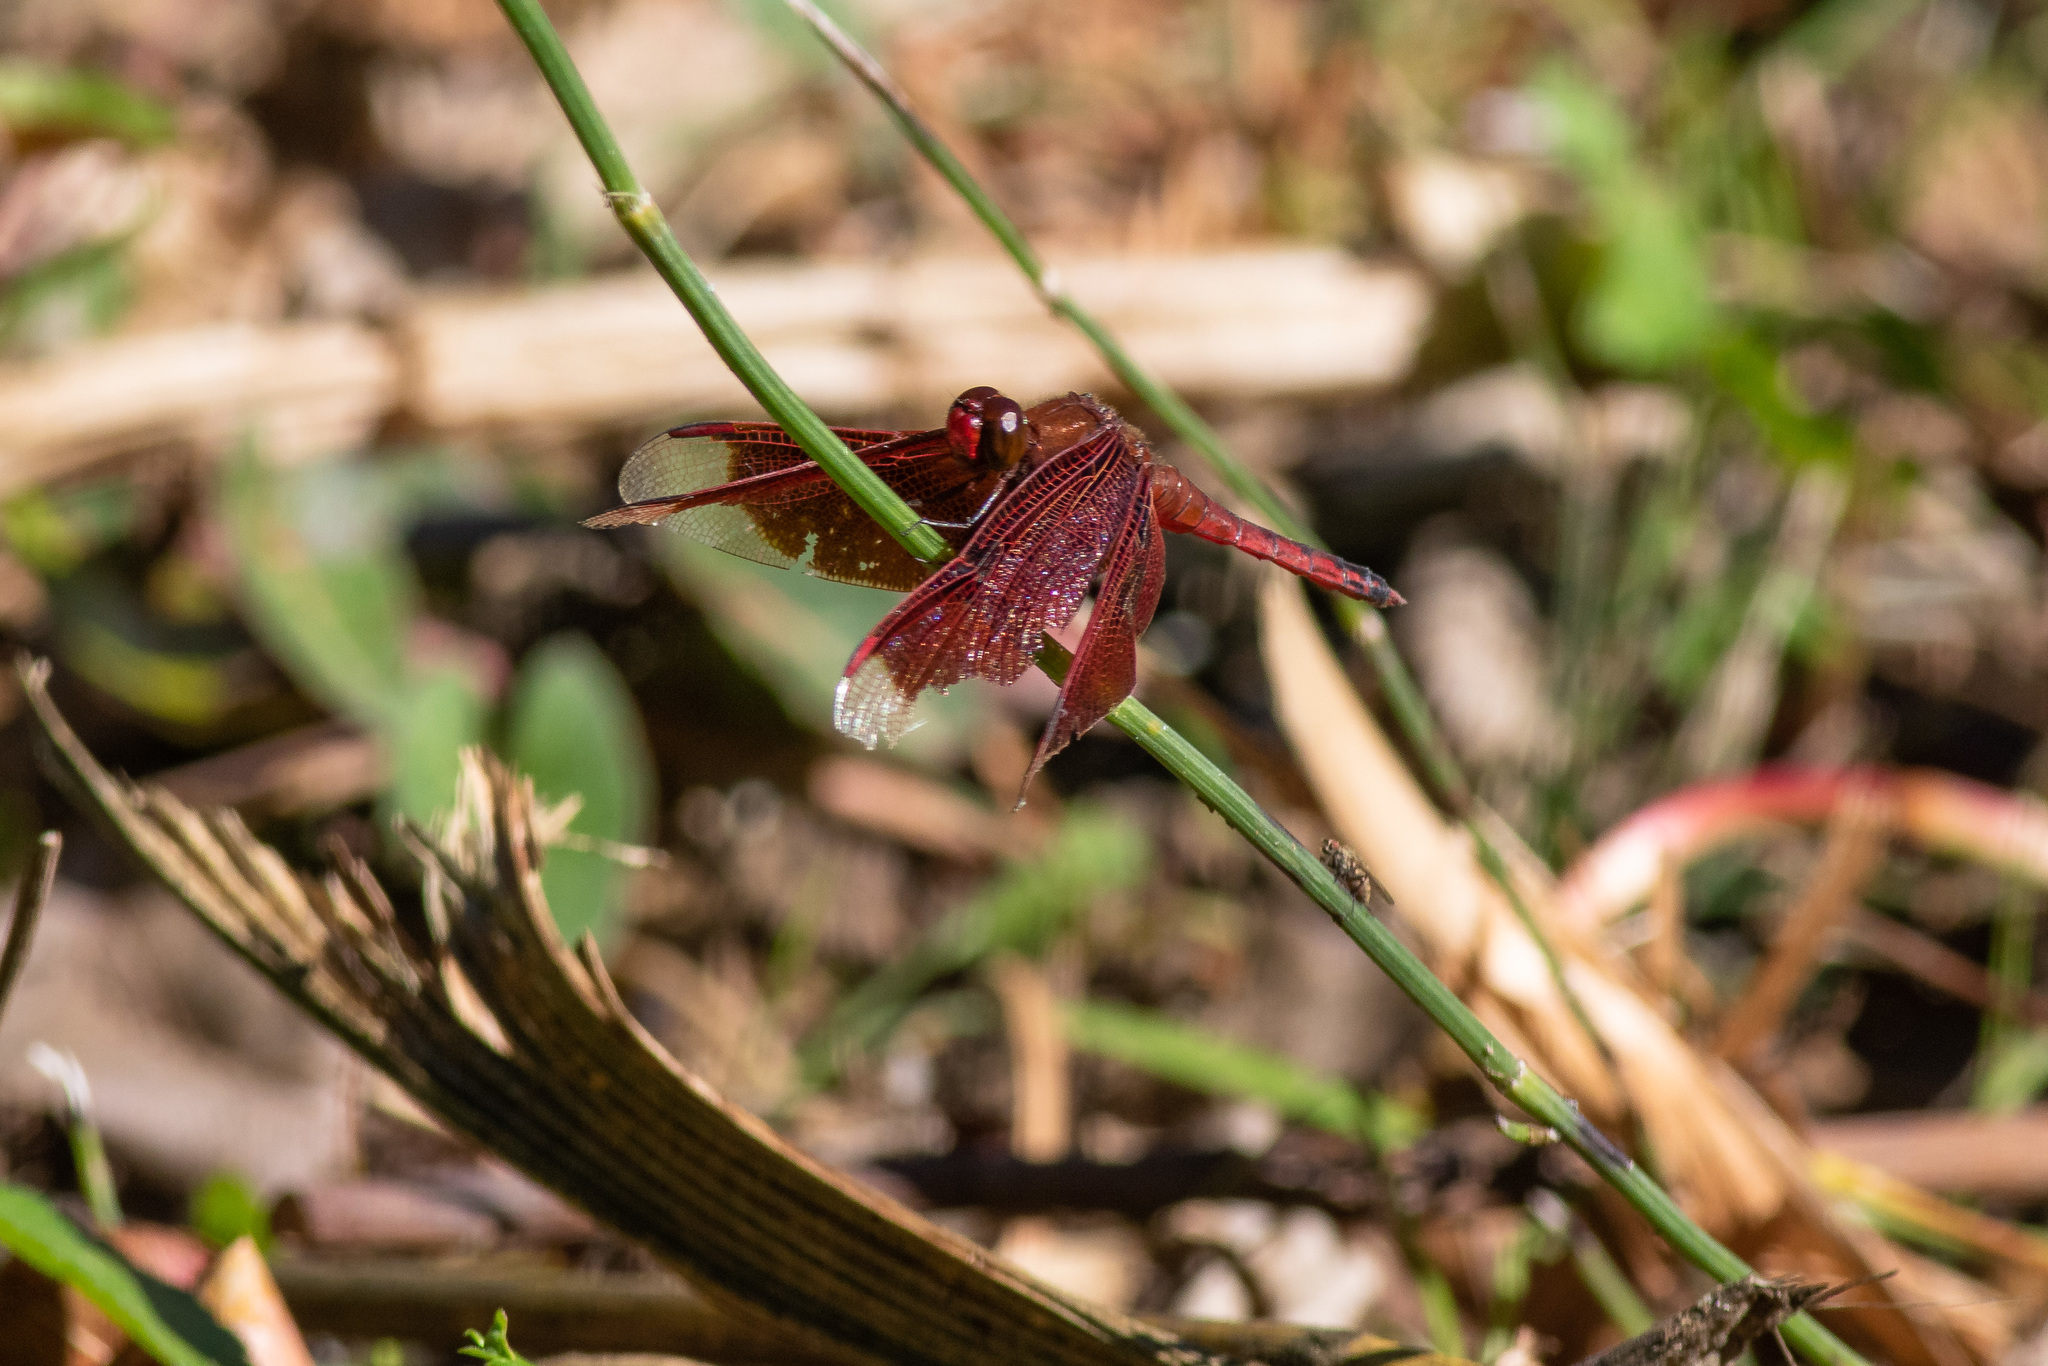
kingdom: Animalia
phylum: Arthropoda
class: Insecta
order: Odonata
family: Libellulidae
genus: Neurothemis
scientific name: Neurothemis taiwanensis
